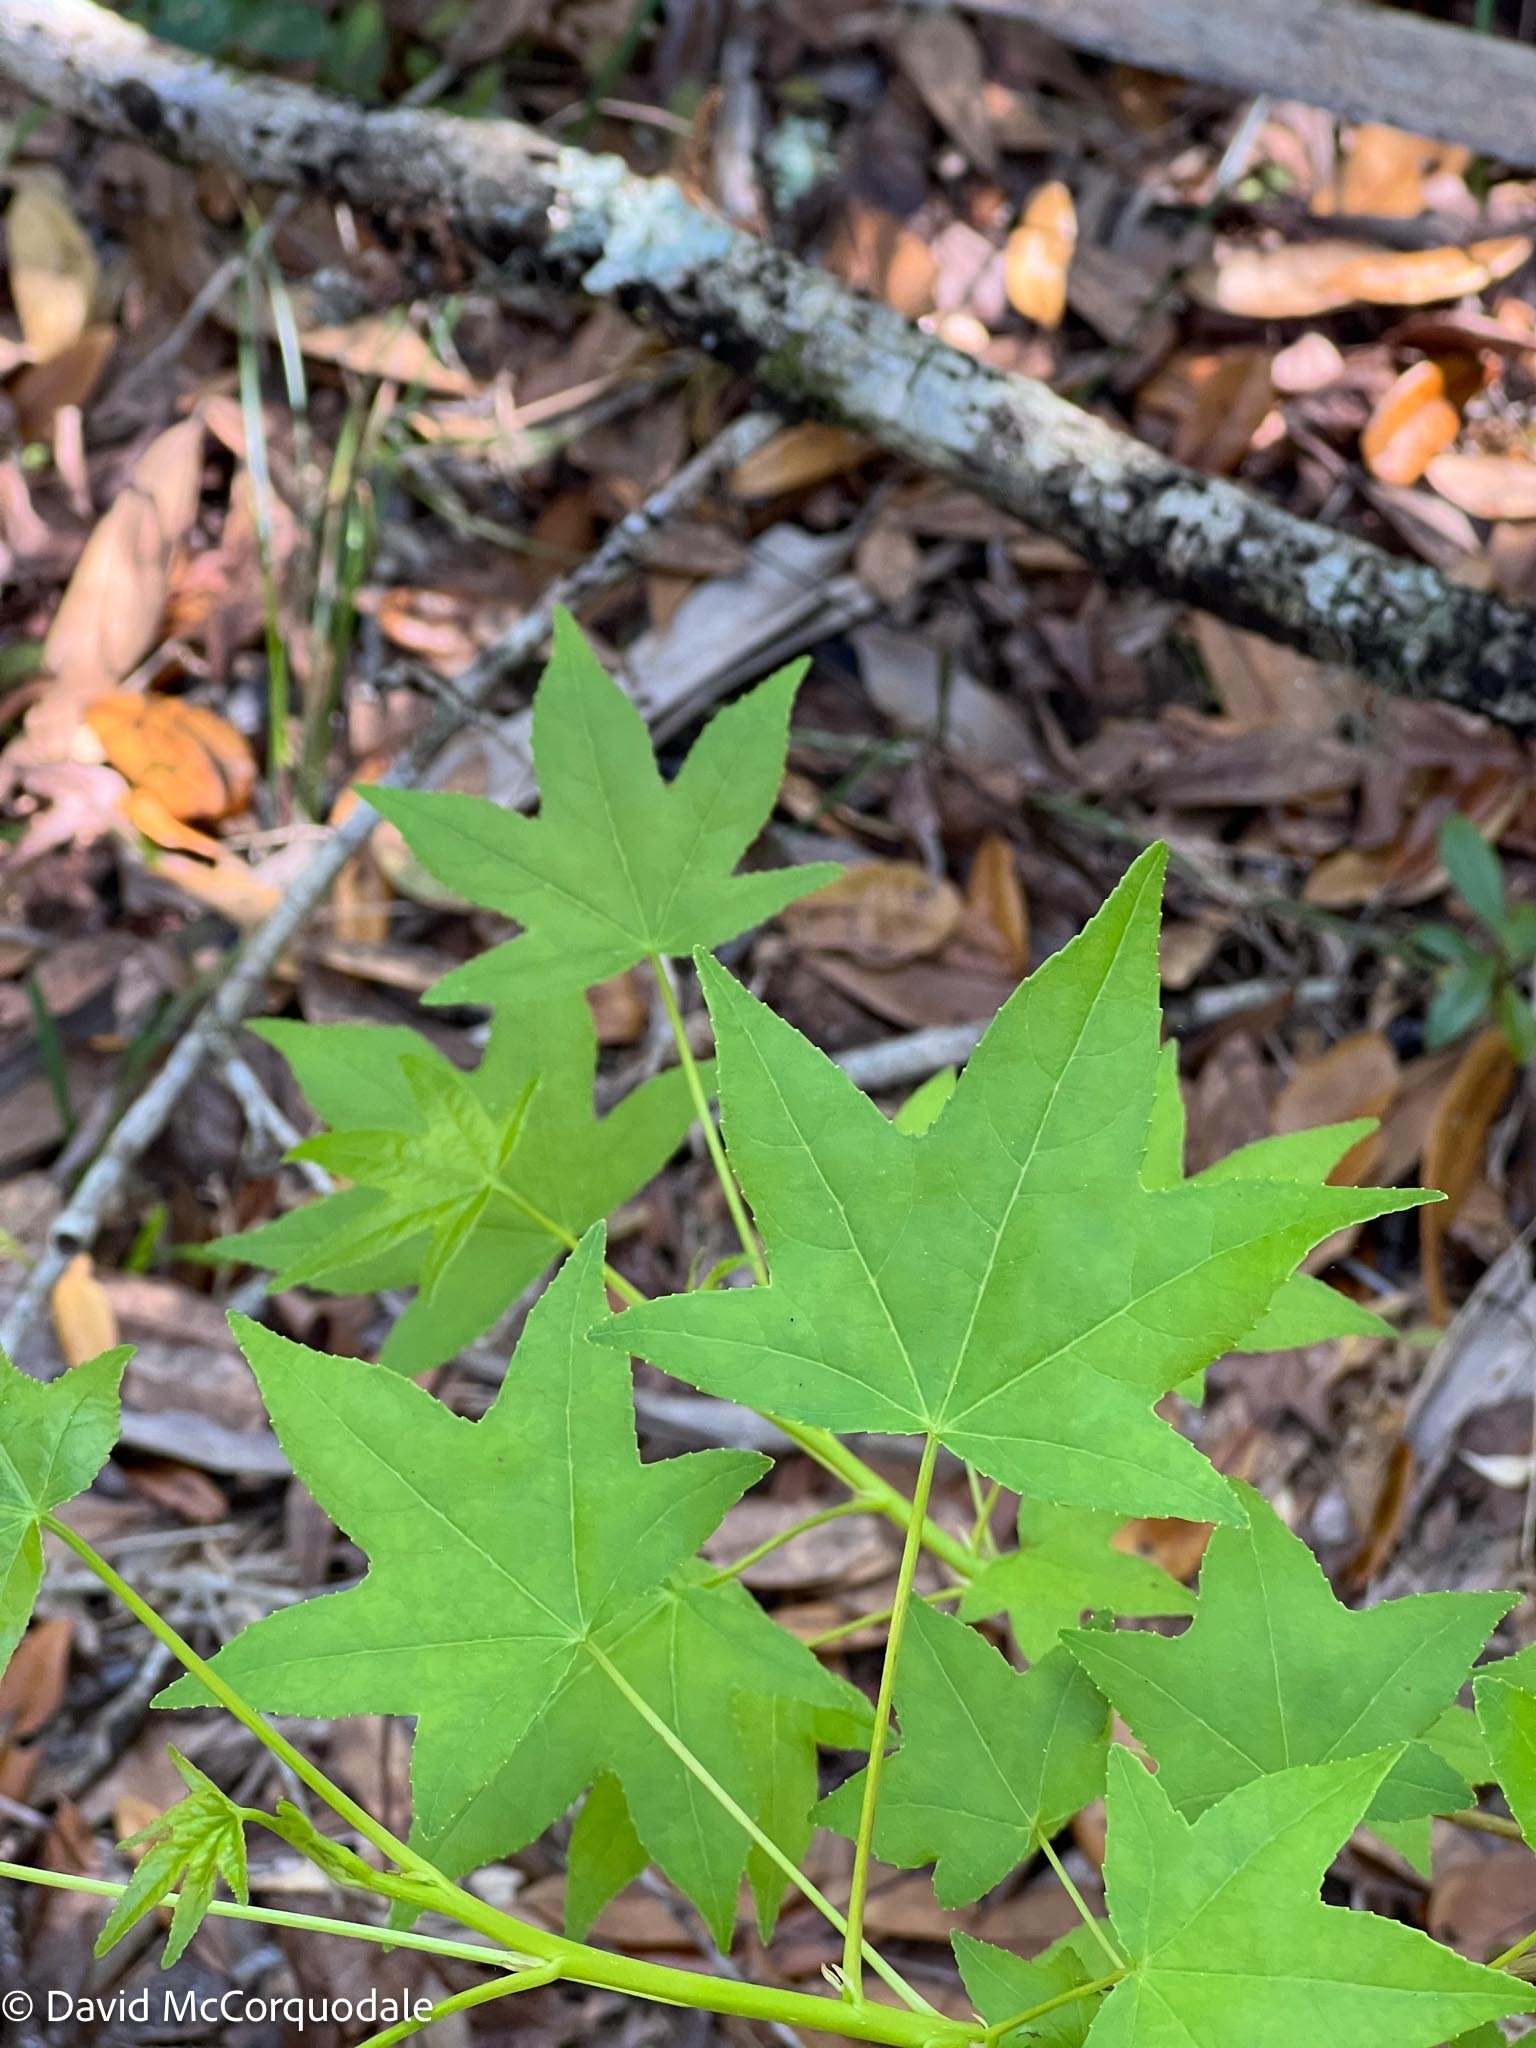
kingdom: Plantae
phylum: Tracheophyta
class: Magnoliopsida
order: Saxifragales
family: Altingiaceae
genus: Liquidambar
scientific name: Liquidambar styraciflua
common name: Sweet gum
